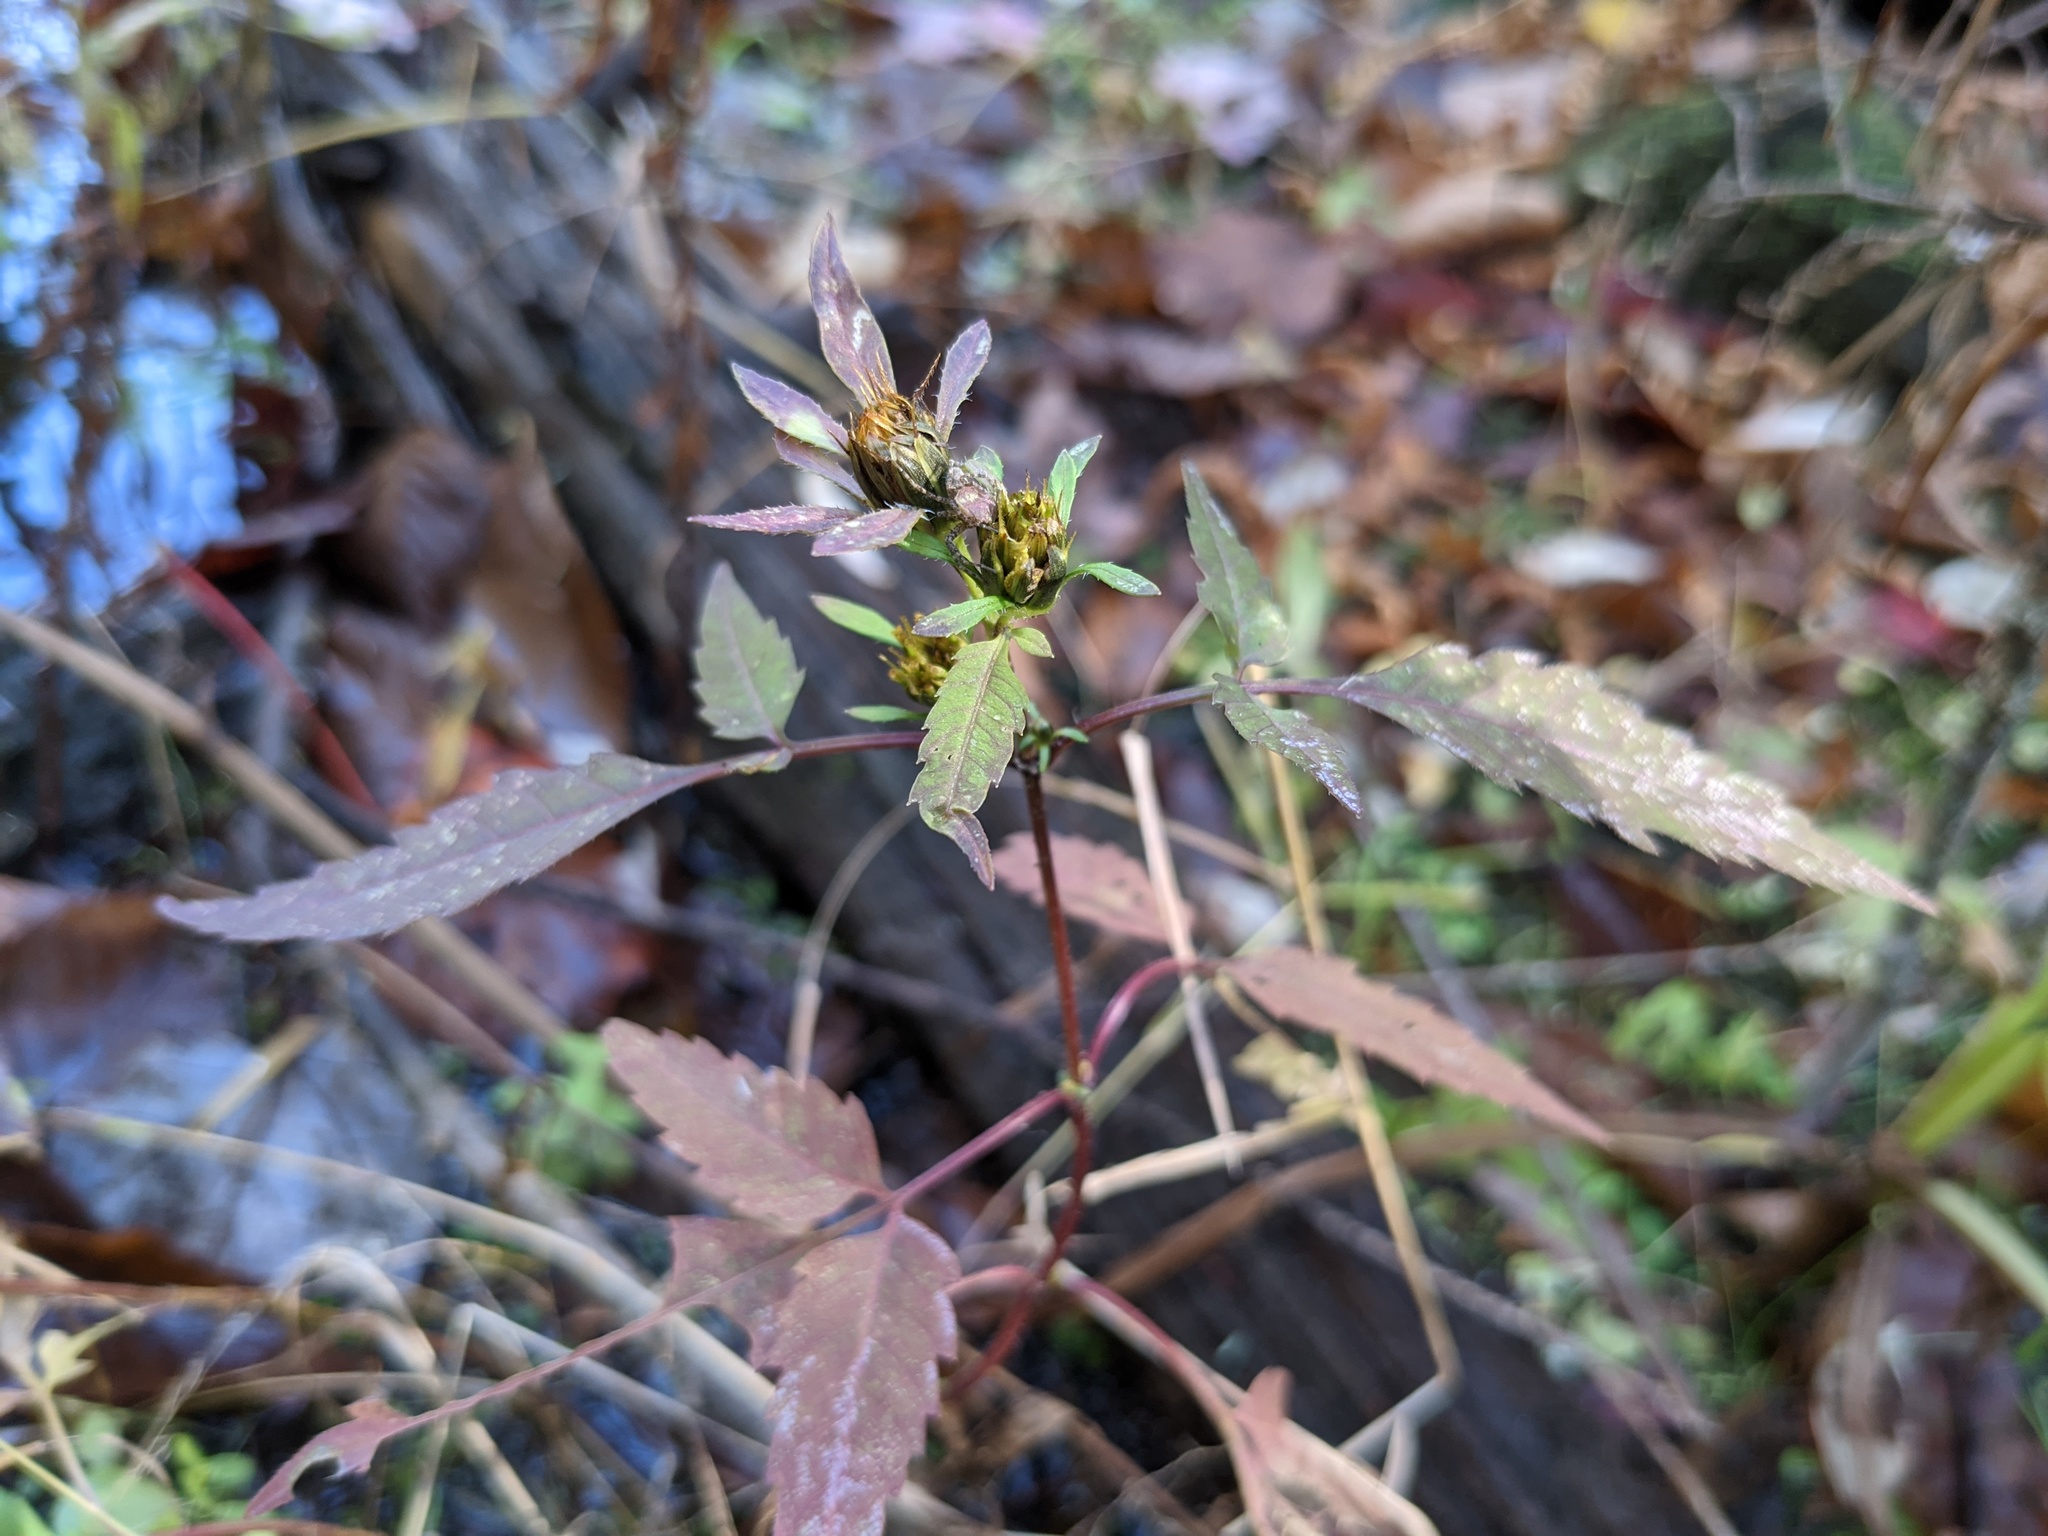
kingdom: Plantae
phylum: Tracheophyta
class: Magnoliopsida
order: Asterales
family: Asteraceae
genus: Bidens
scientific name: Bidens frondosa
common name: Beggarticks
